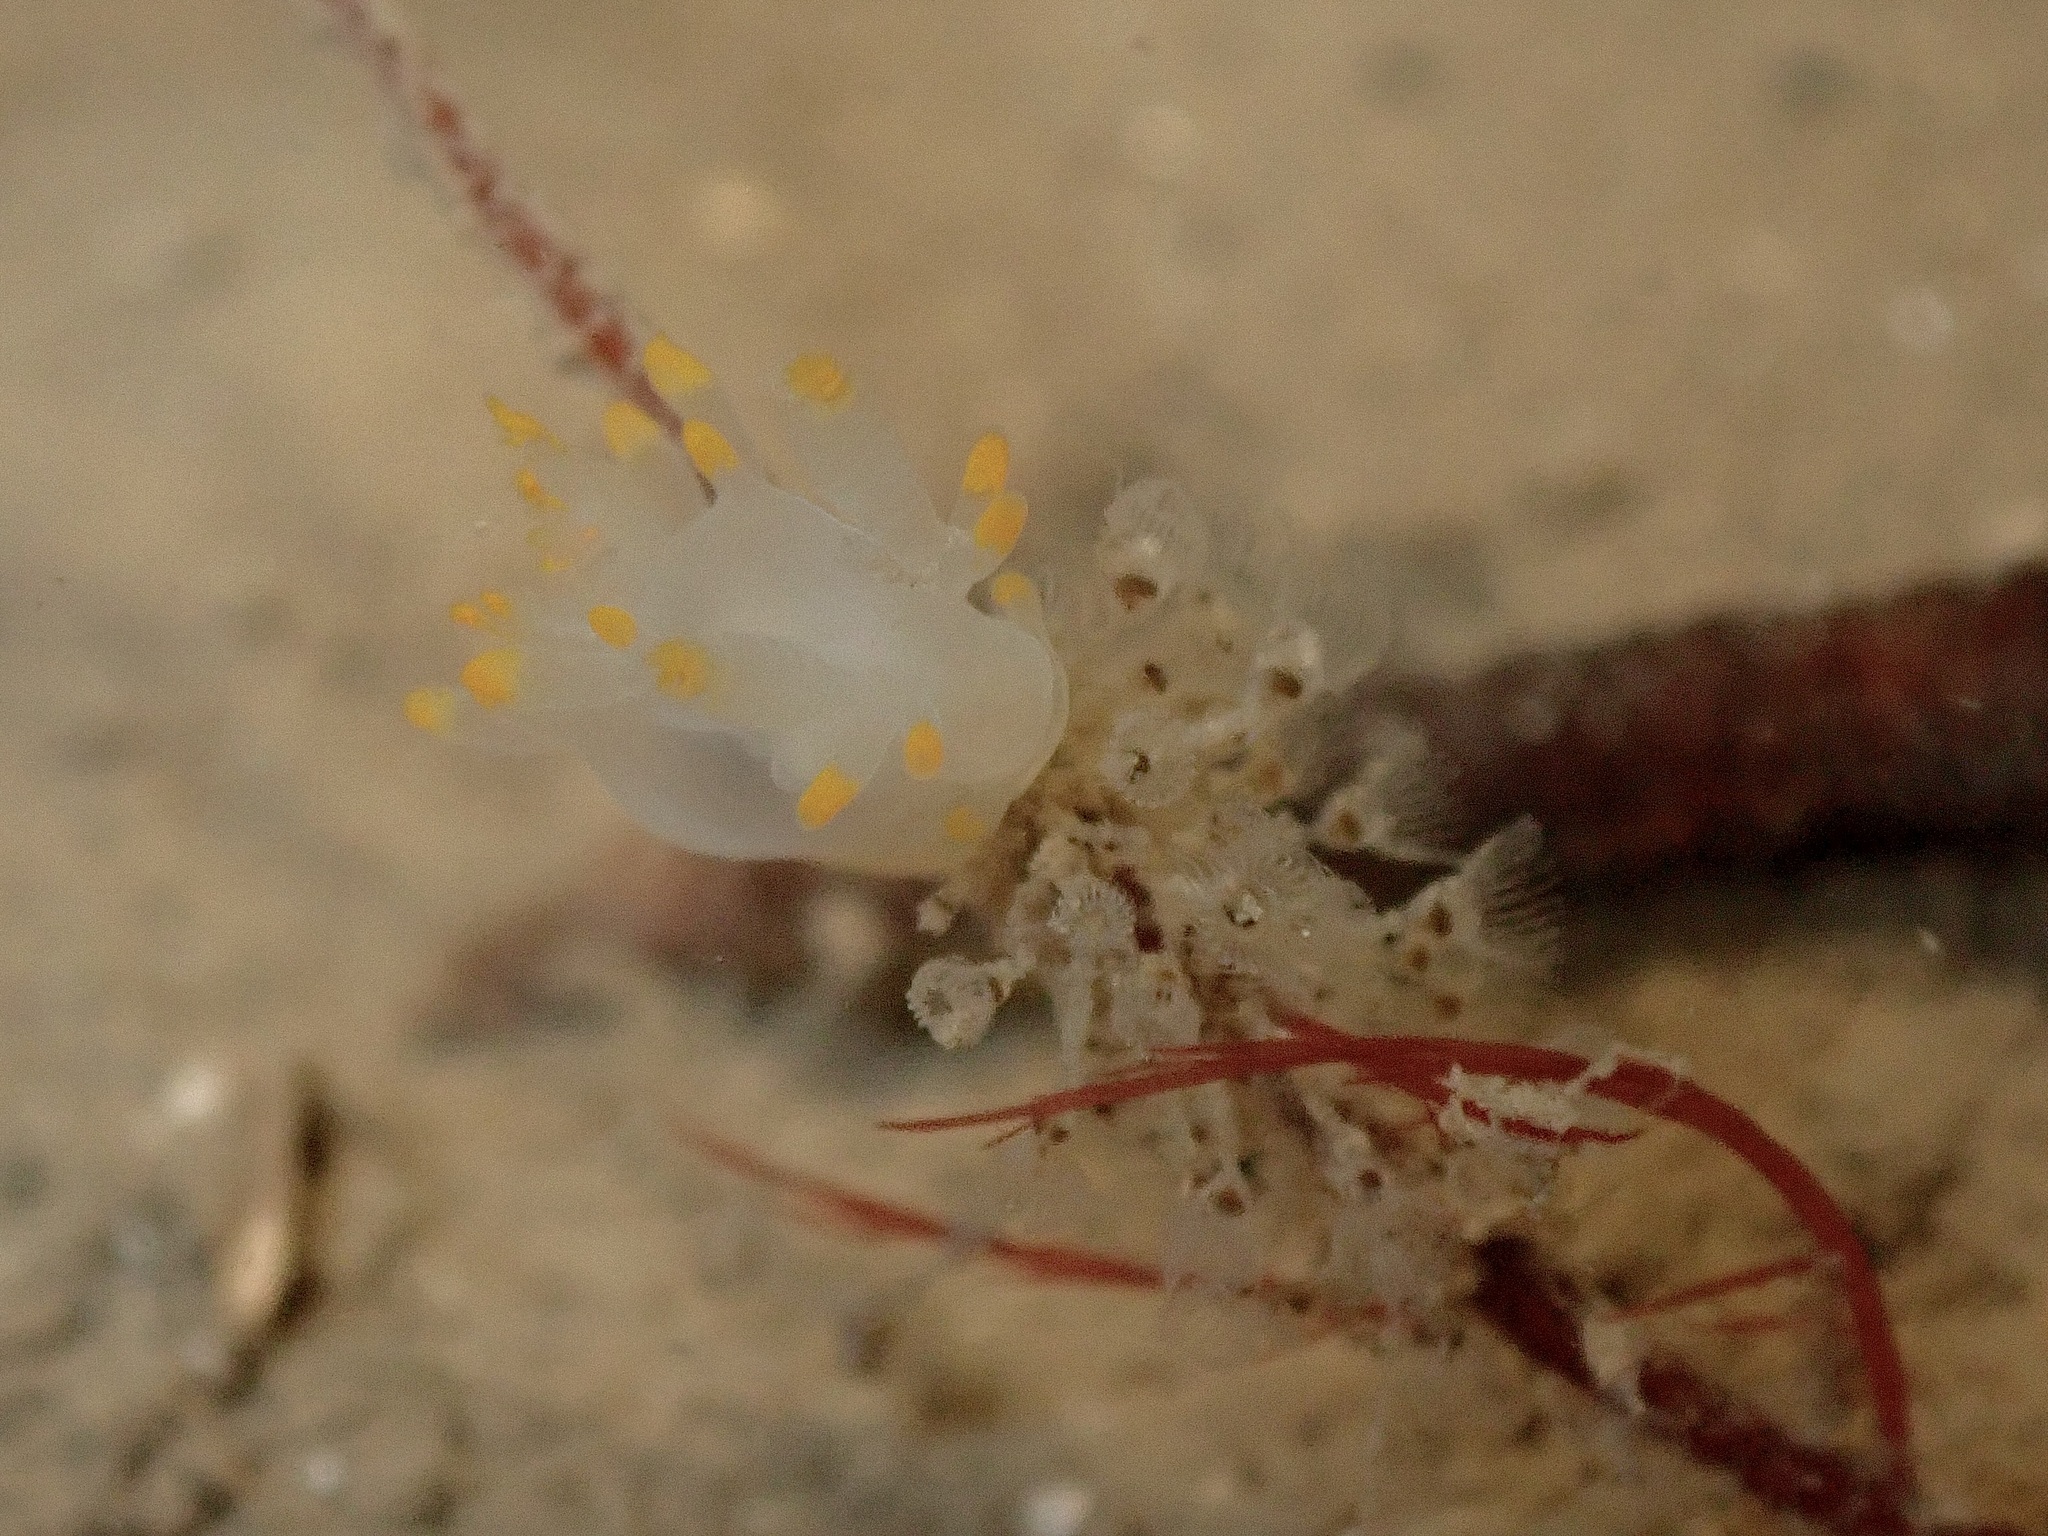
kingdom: Animalia
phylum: Mollusca
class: Gastropoda
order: Nudibranchia
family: Goniodorididae
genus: Ancula
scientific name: Ancula gibbosa
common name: Atlantic ancula
